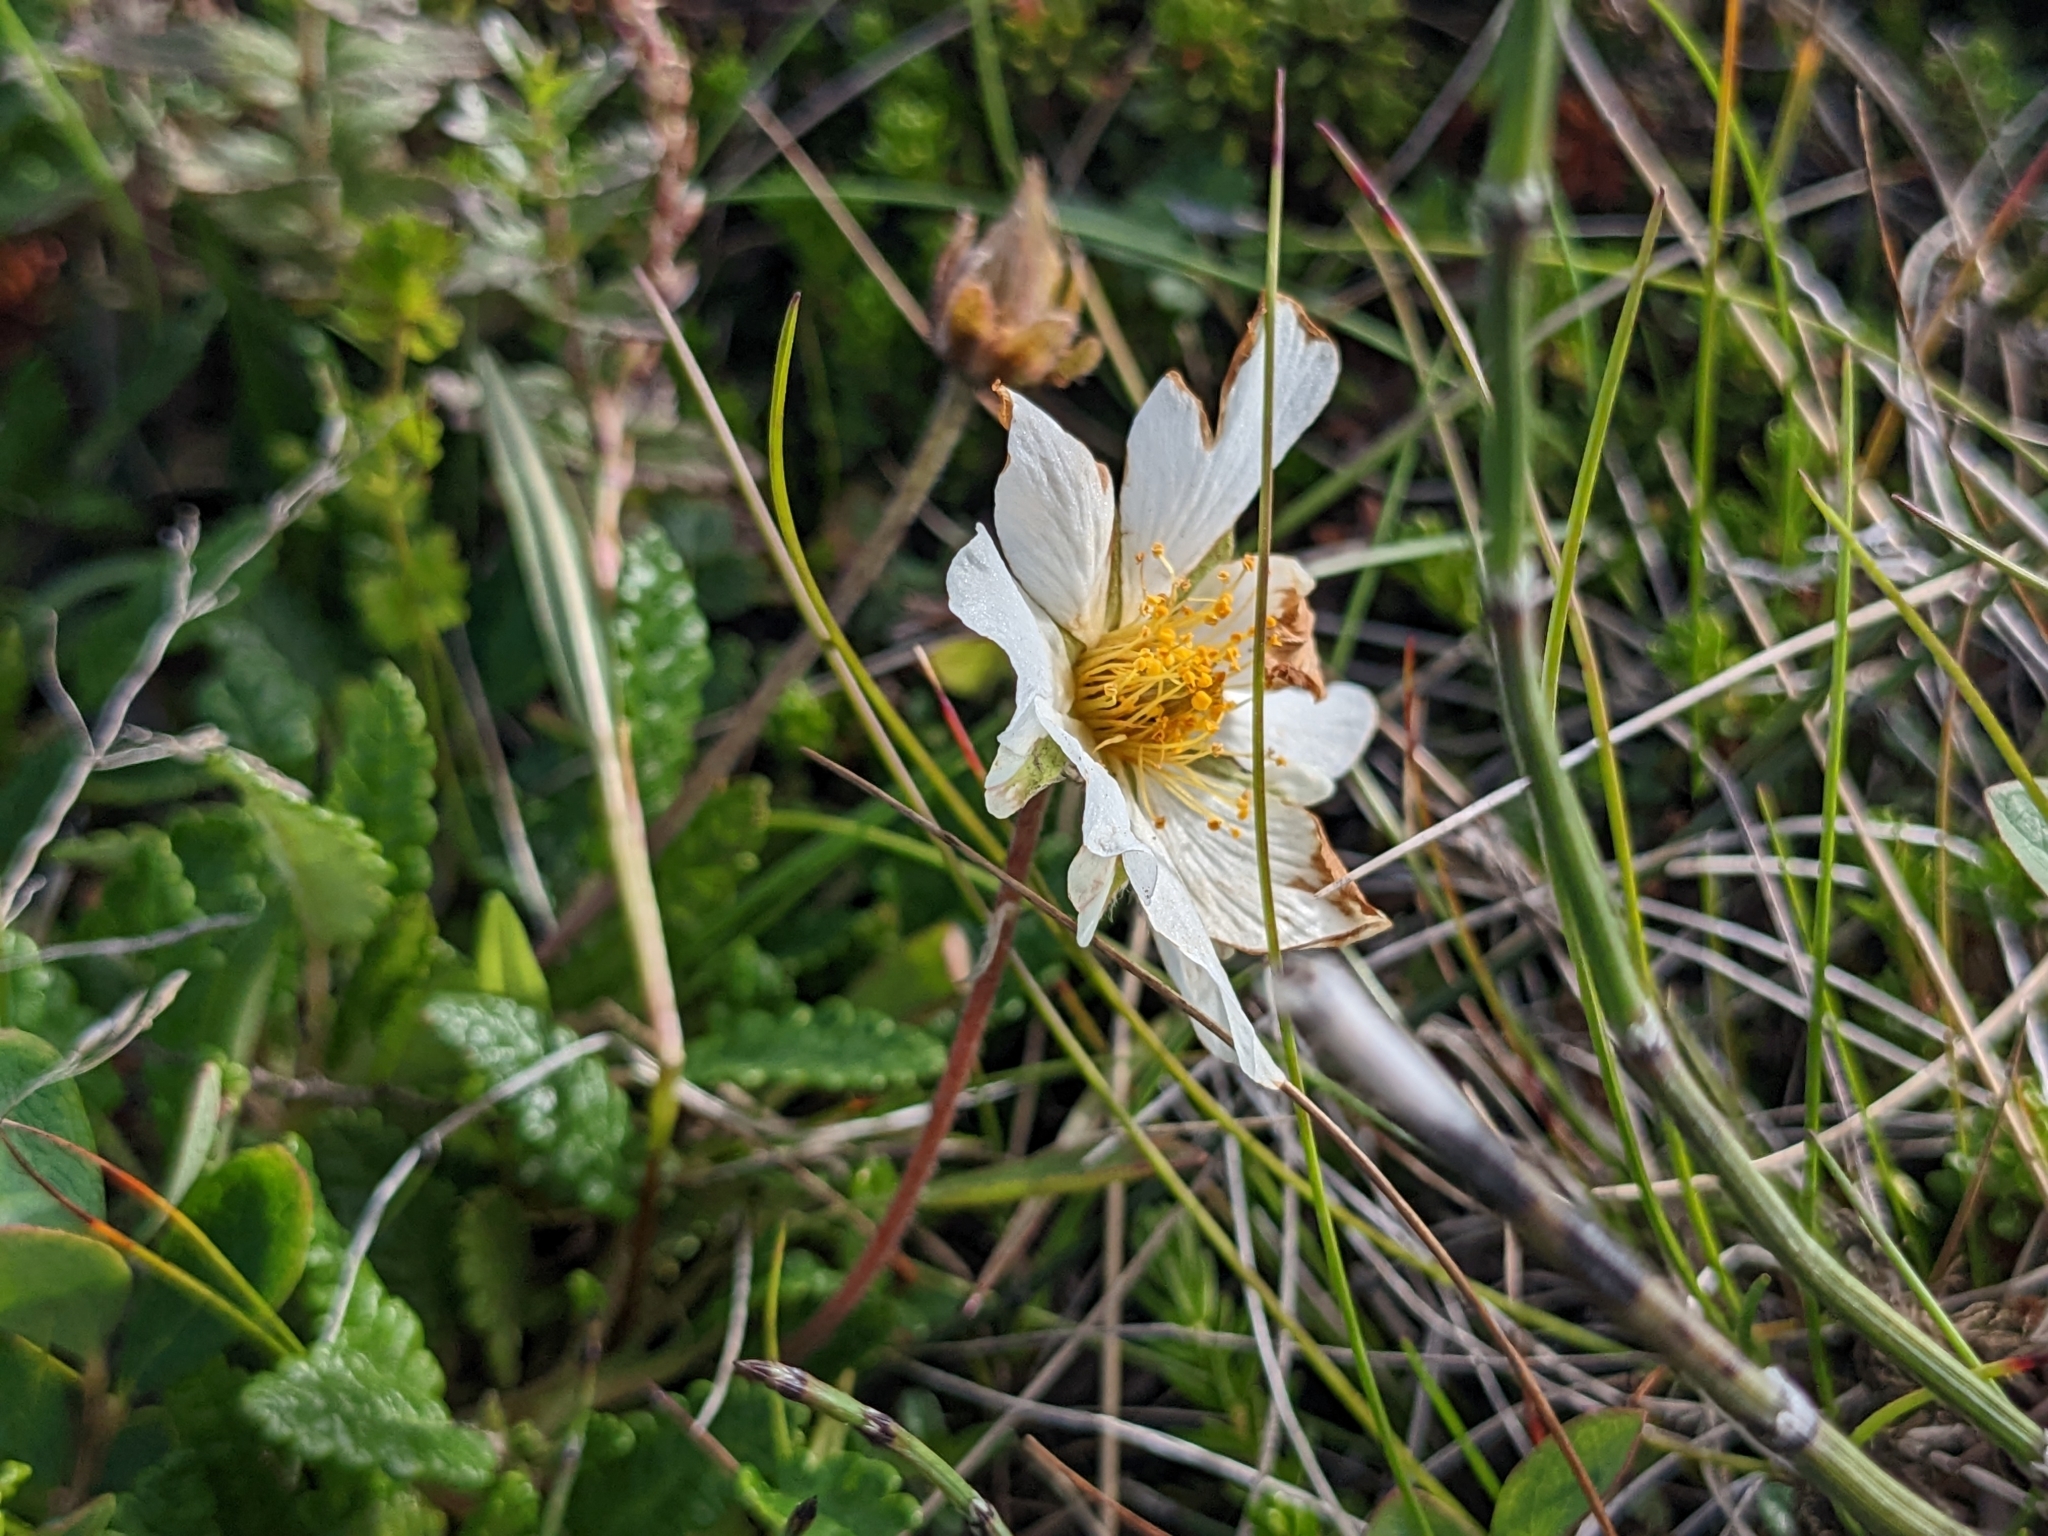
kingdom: Plantae
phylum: Tracheophyta
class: Magnoliopsida
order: Rosales
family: Rosaceae
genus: Dryas
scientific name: Dryas octopetala
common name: Eight-petal mountain-avens
